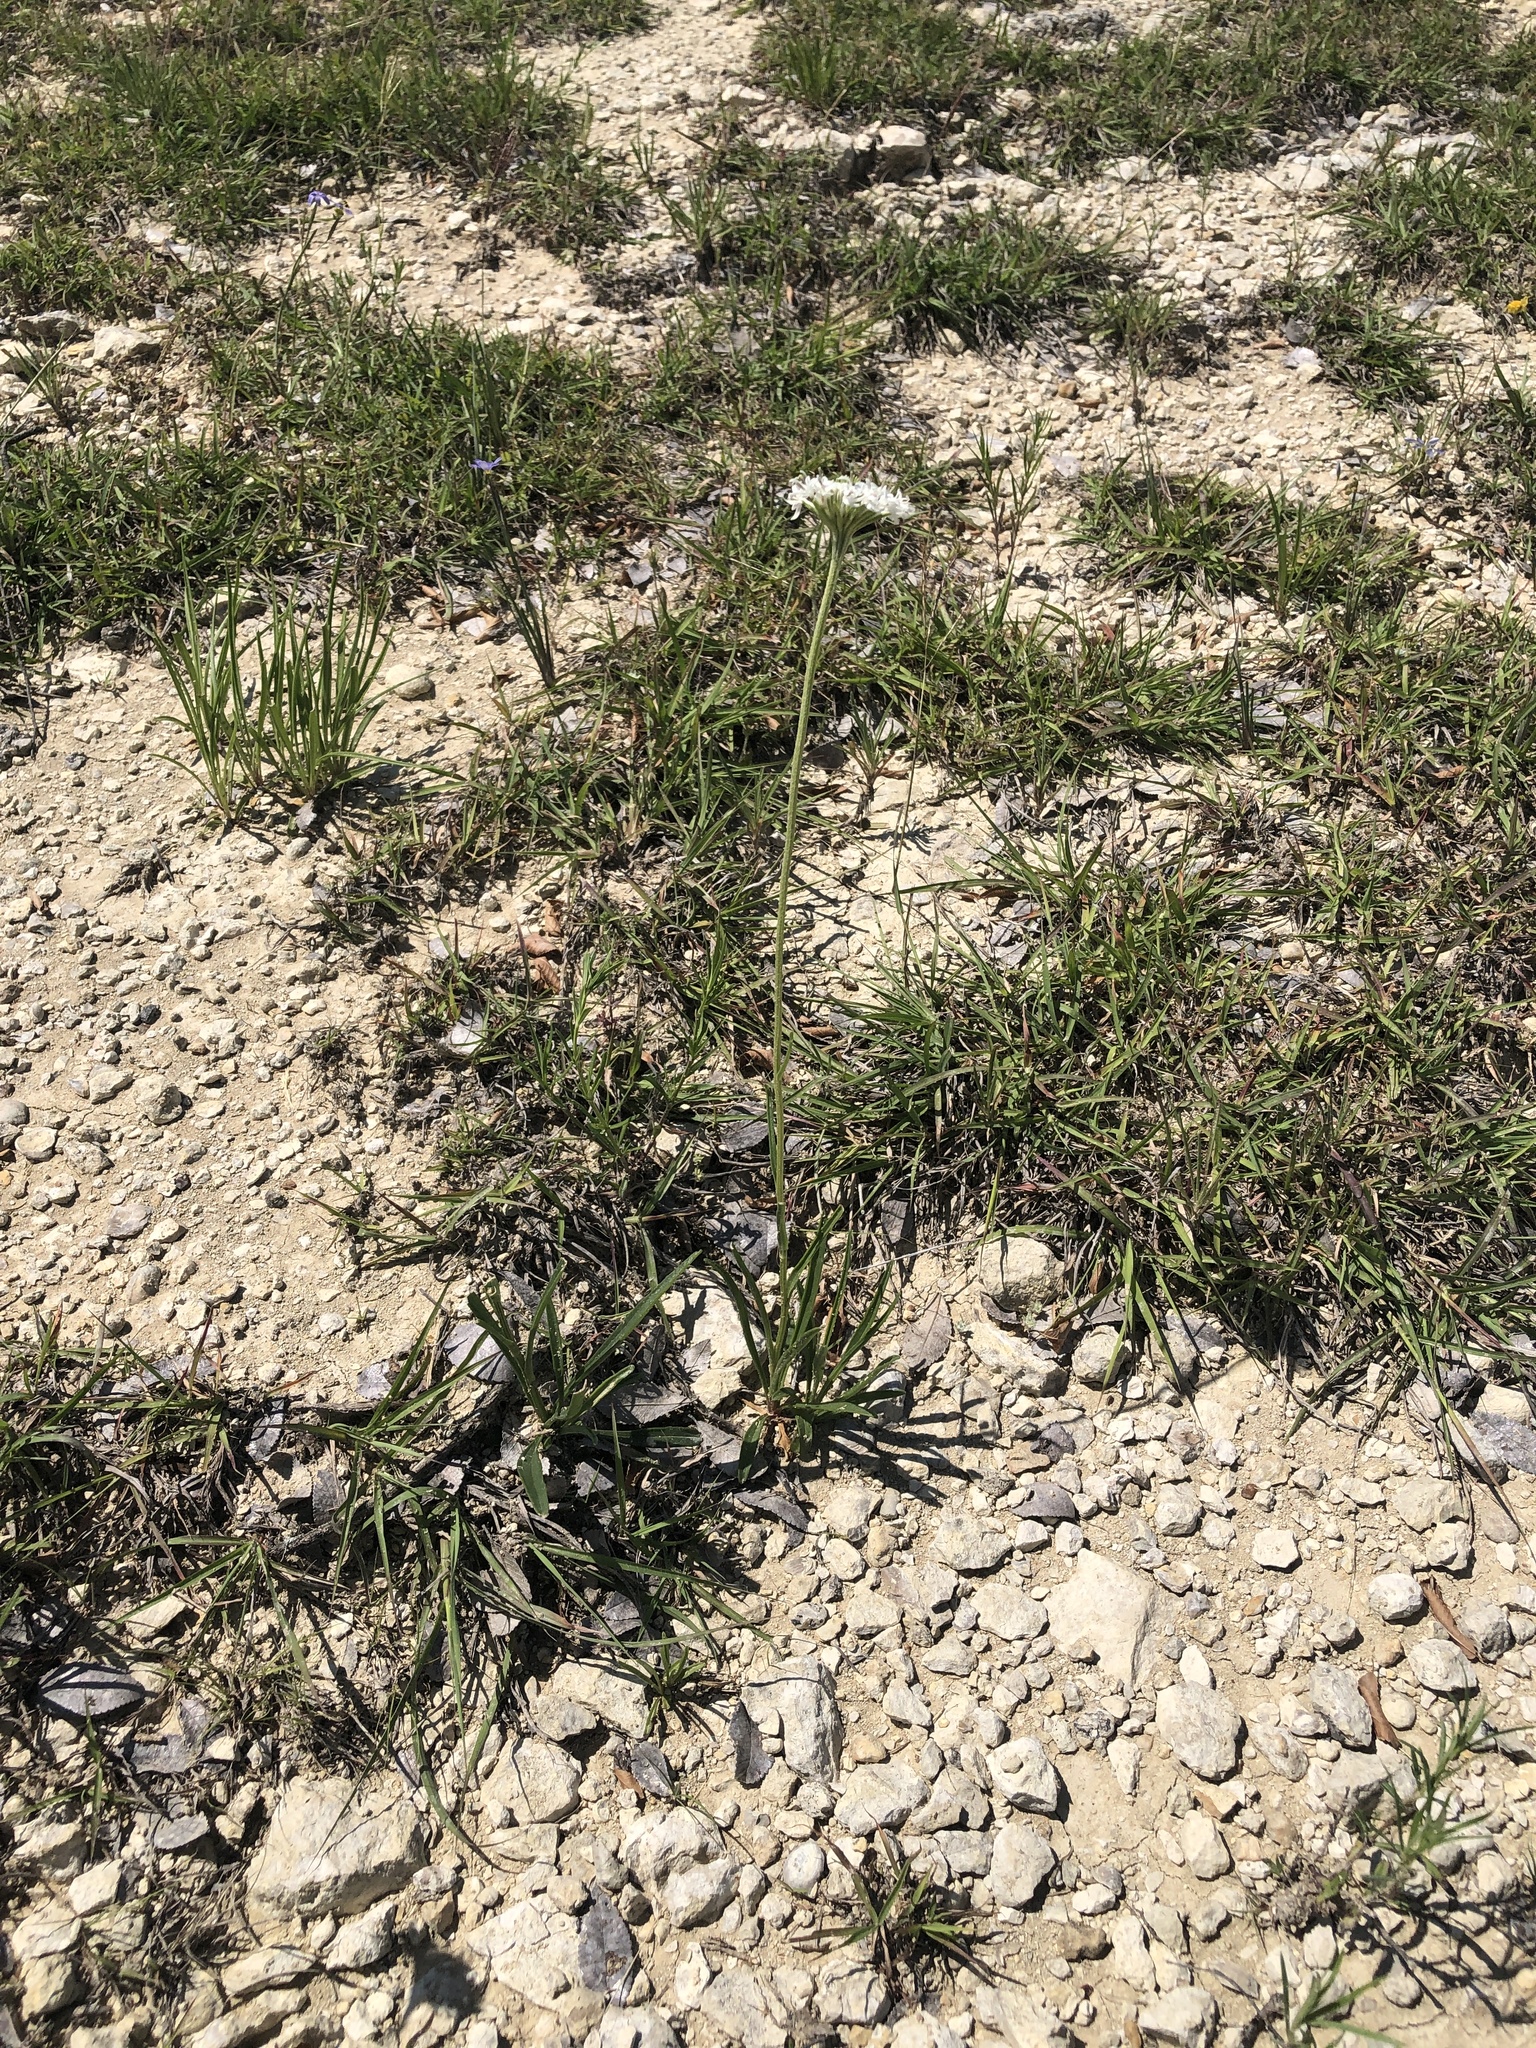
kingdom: Plantae
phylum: Tracheophyta
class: Magnoliopsida
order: Asterales
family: Asteraceae
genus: Marshallia
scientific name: Marshallia caespitosa
